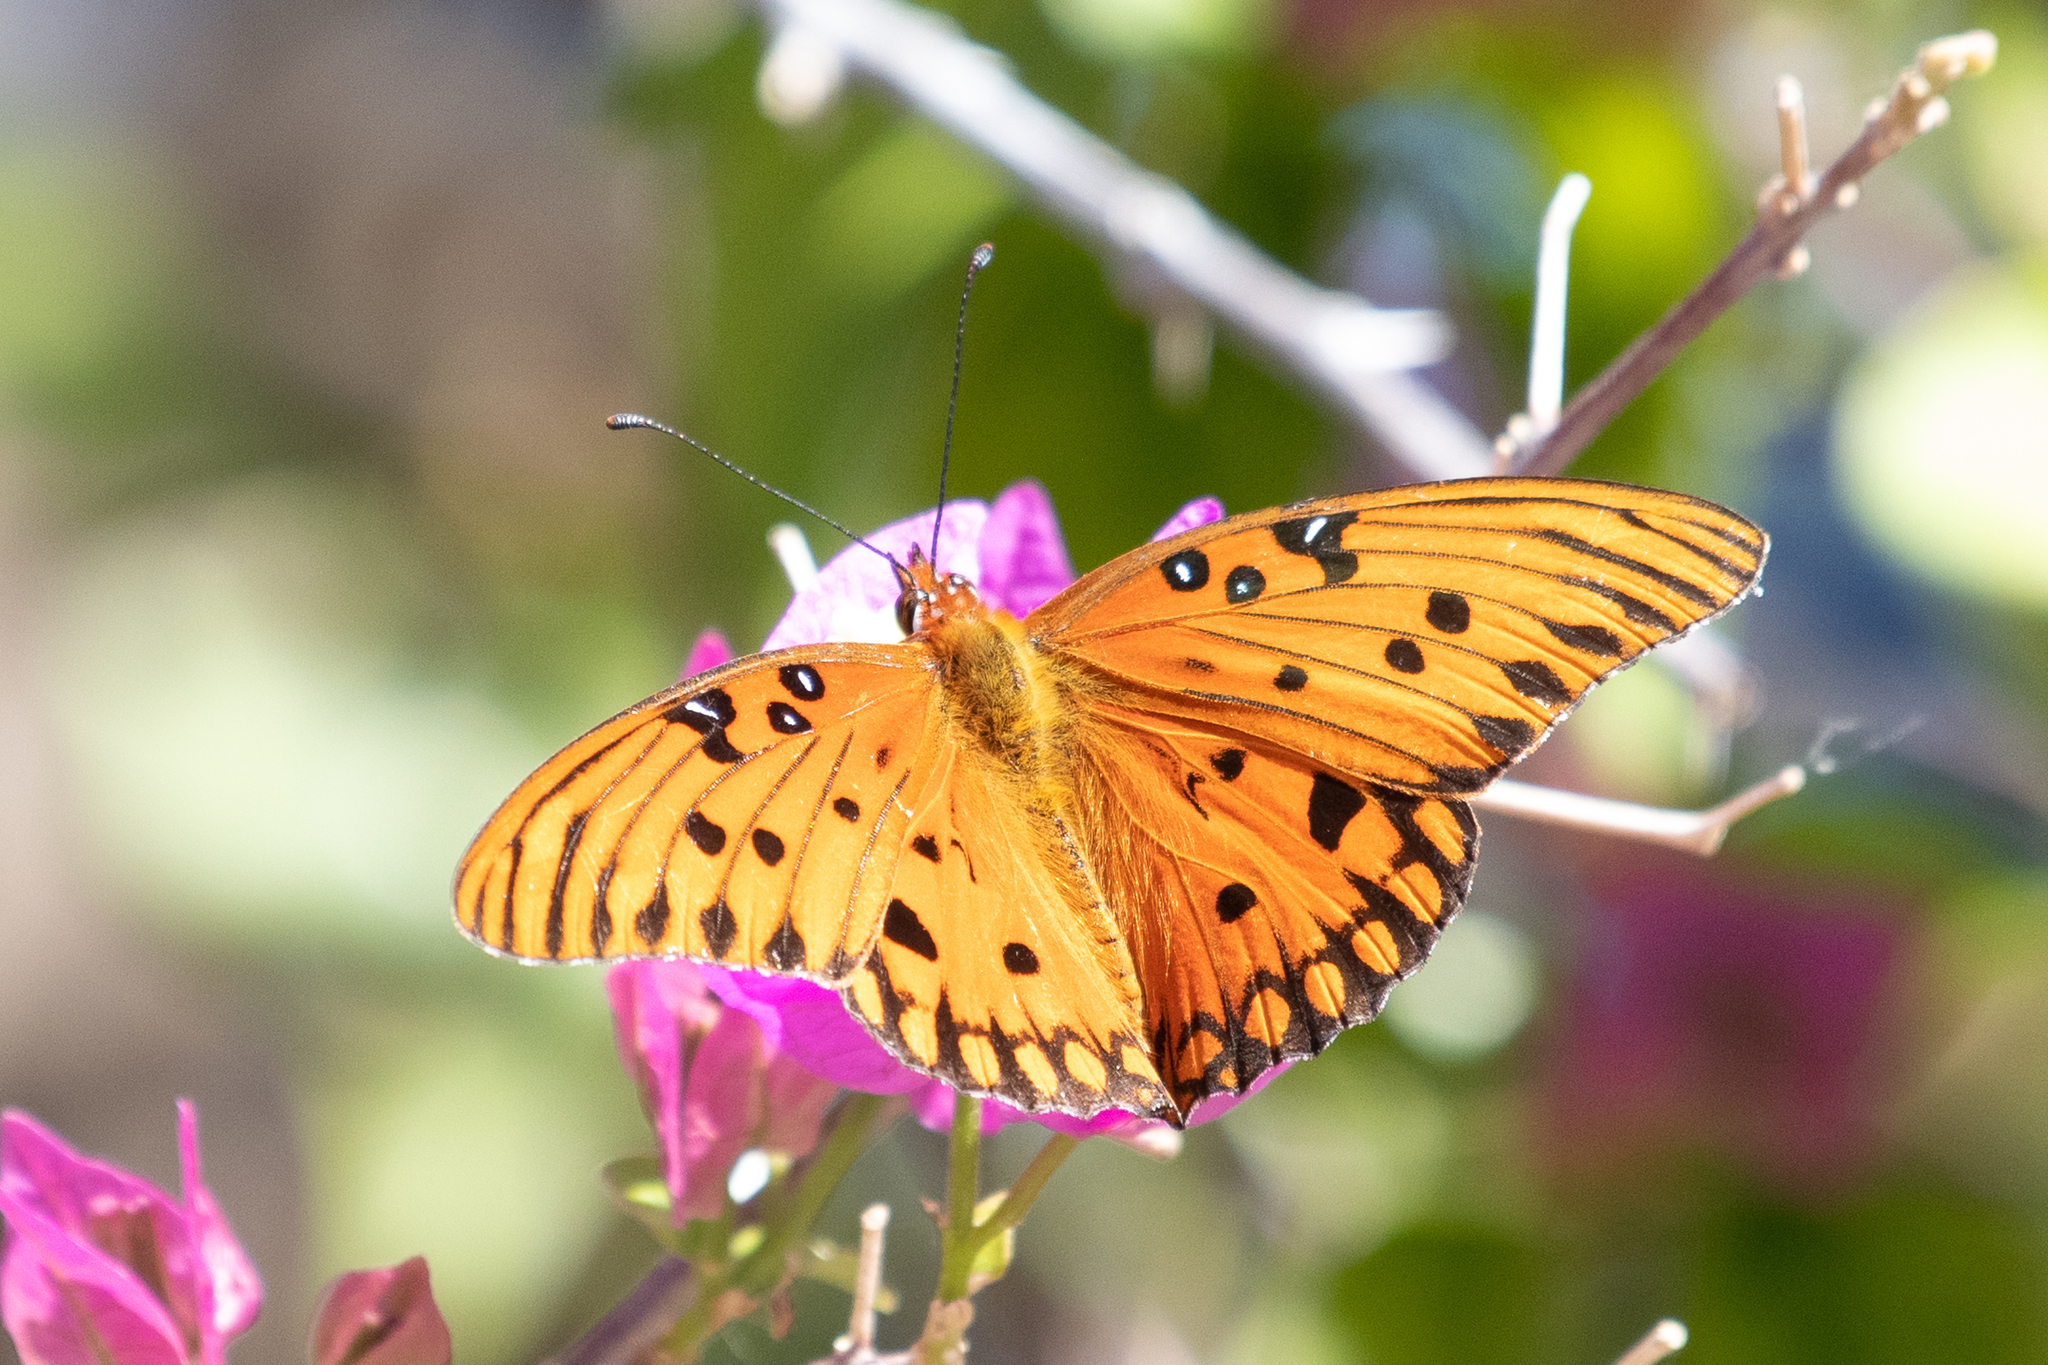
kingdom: Animalia
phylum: Arthropoda
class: Insecta
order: Lepidoptera
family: Nymphalidae
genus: Dione
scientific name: Dione vanillae
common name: Gulf fritillary
